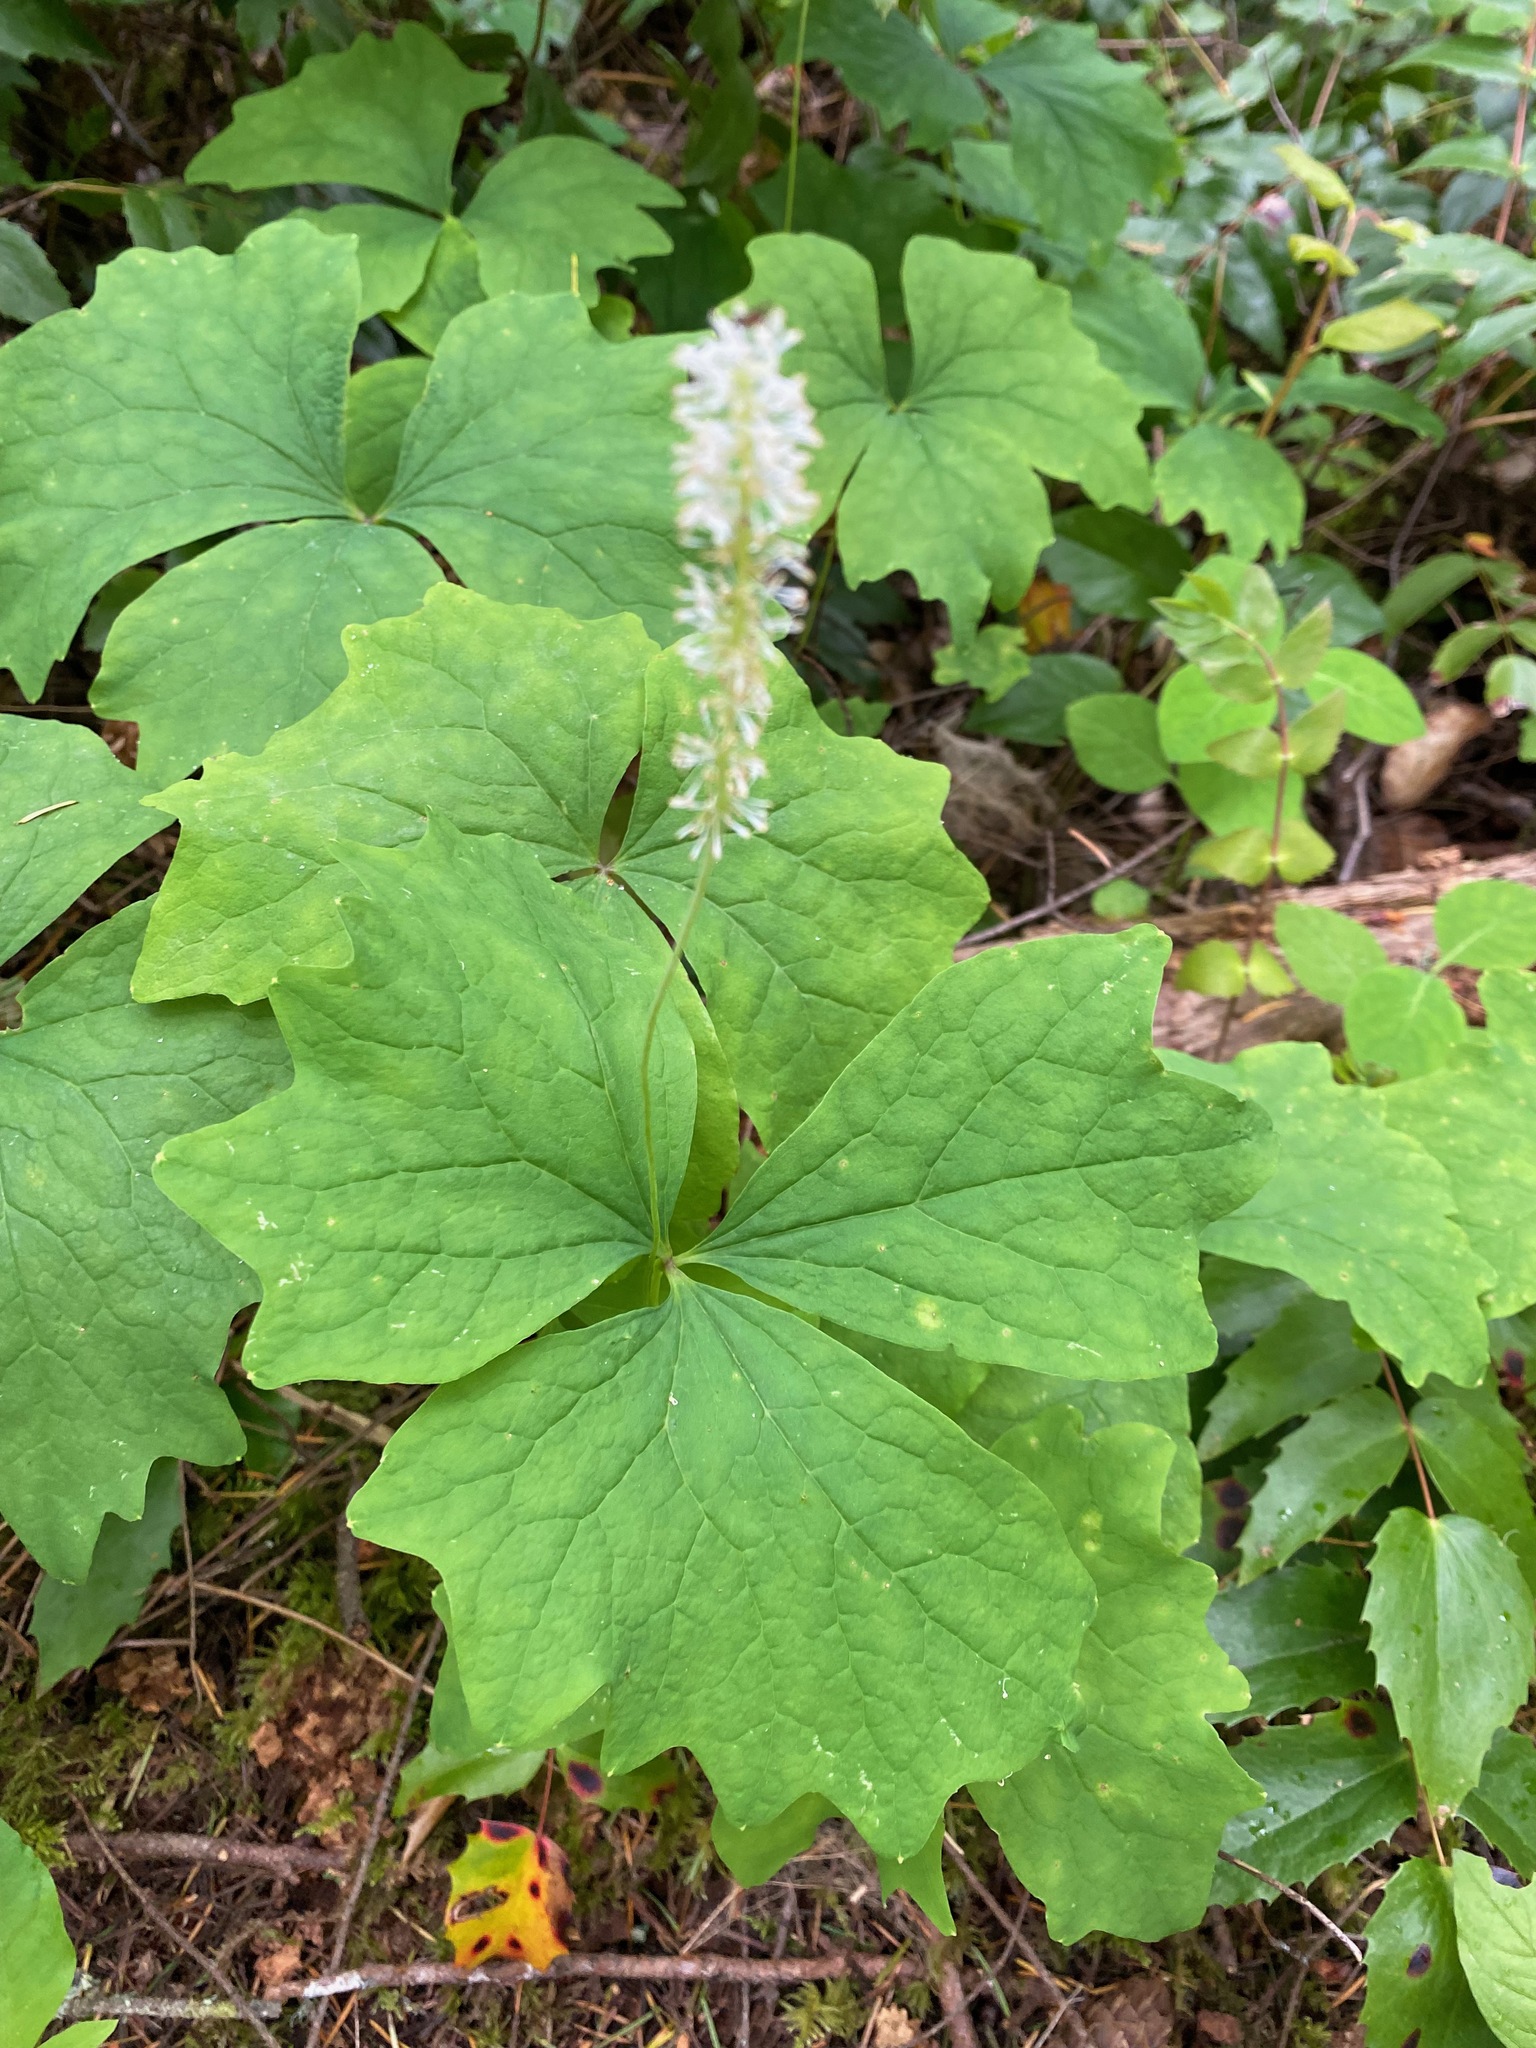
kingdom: Plantae
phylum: Tracheophyta
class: Magnoliopsida
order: Ranunculales
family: Berberidaceae
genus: Achlys
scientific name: Achlys triphylla
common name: Vanilla-leaf
